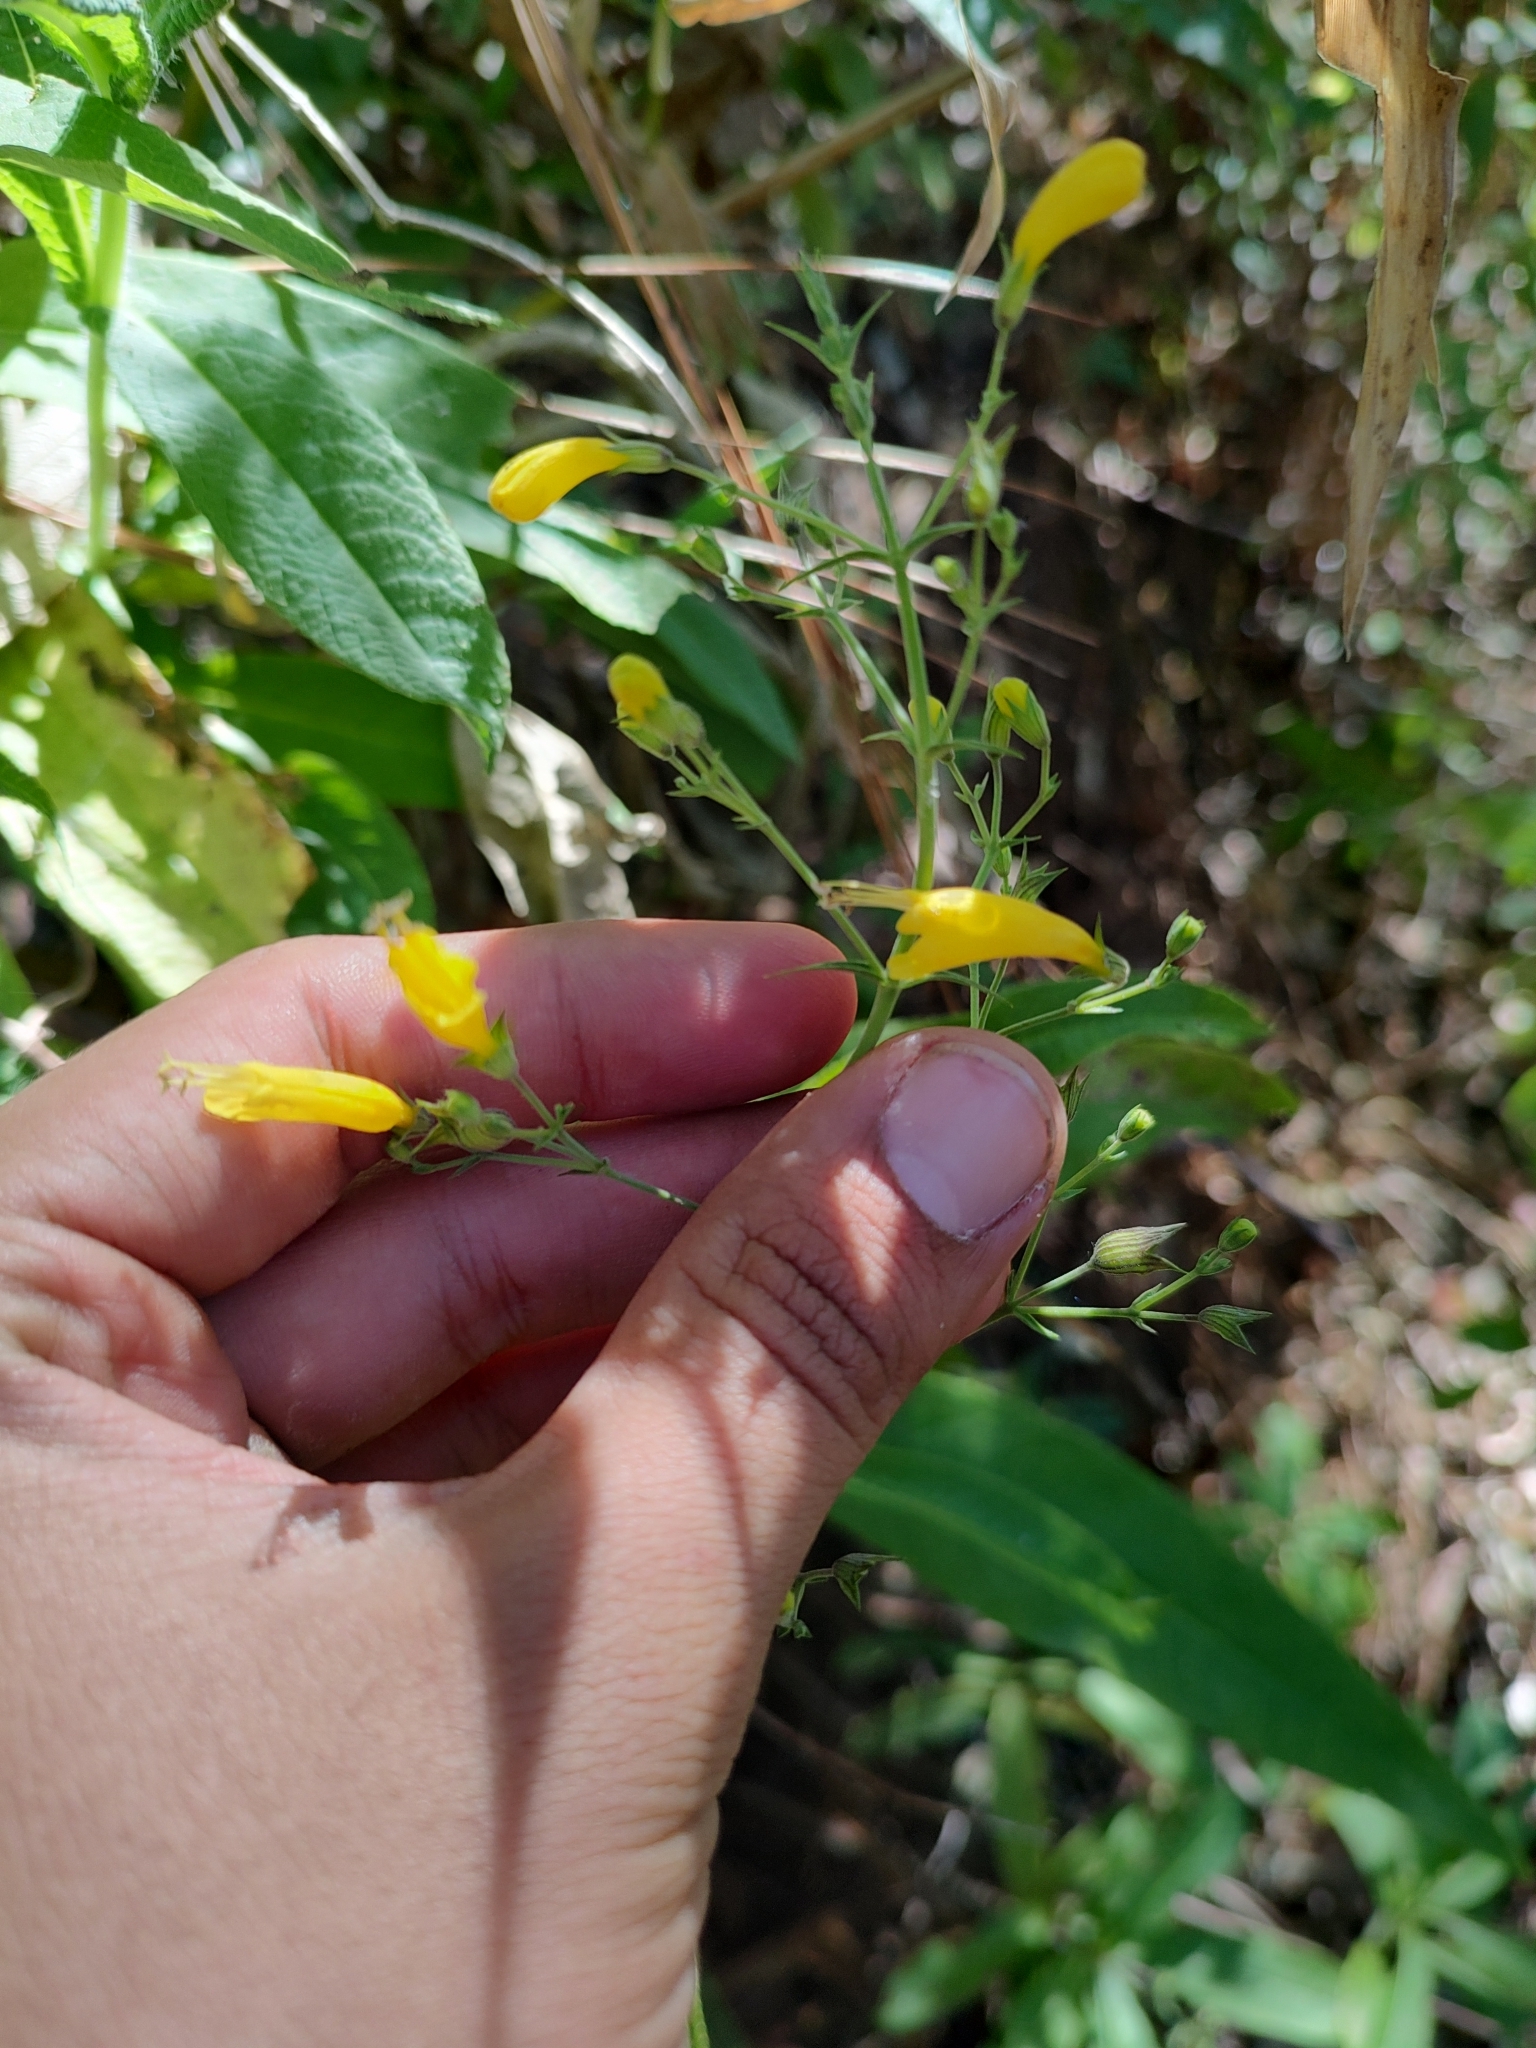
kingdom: Plantae
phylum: Tracheophyta
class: Magnoliopsida
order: Lamiales
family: Lamiaceae
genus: Lepechinia
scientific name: Lepechinia nelsonii
